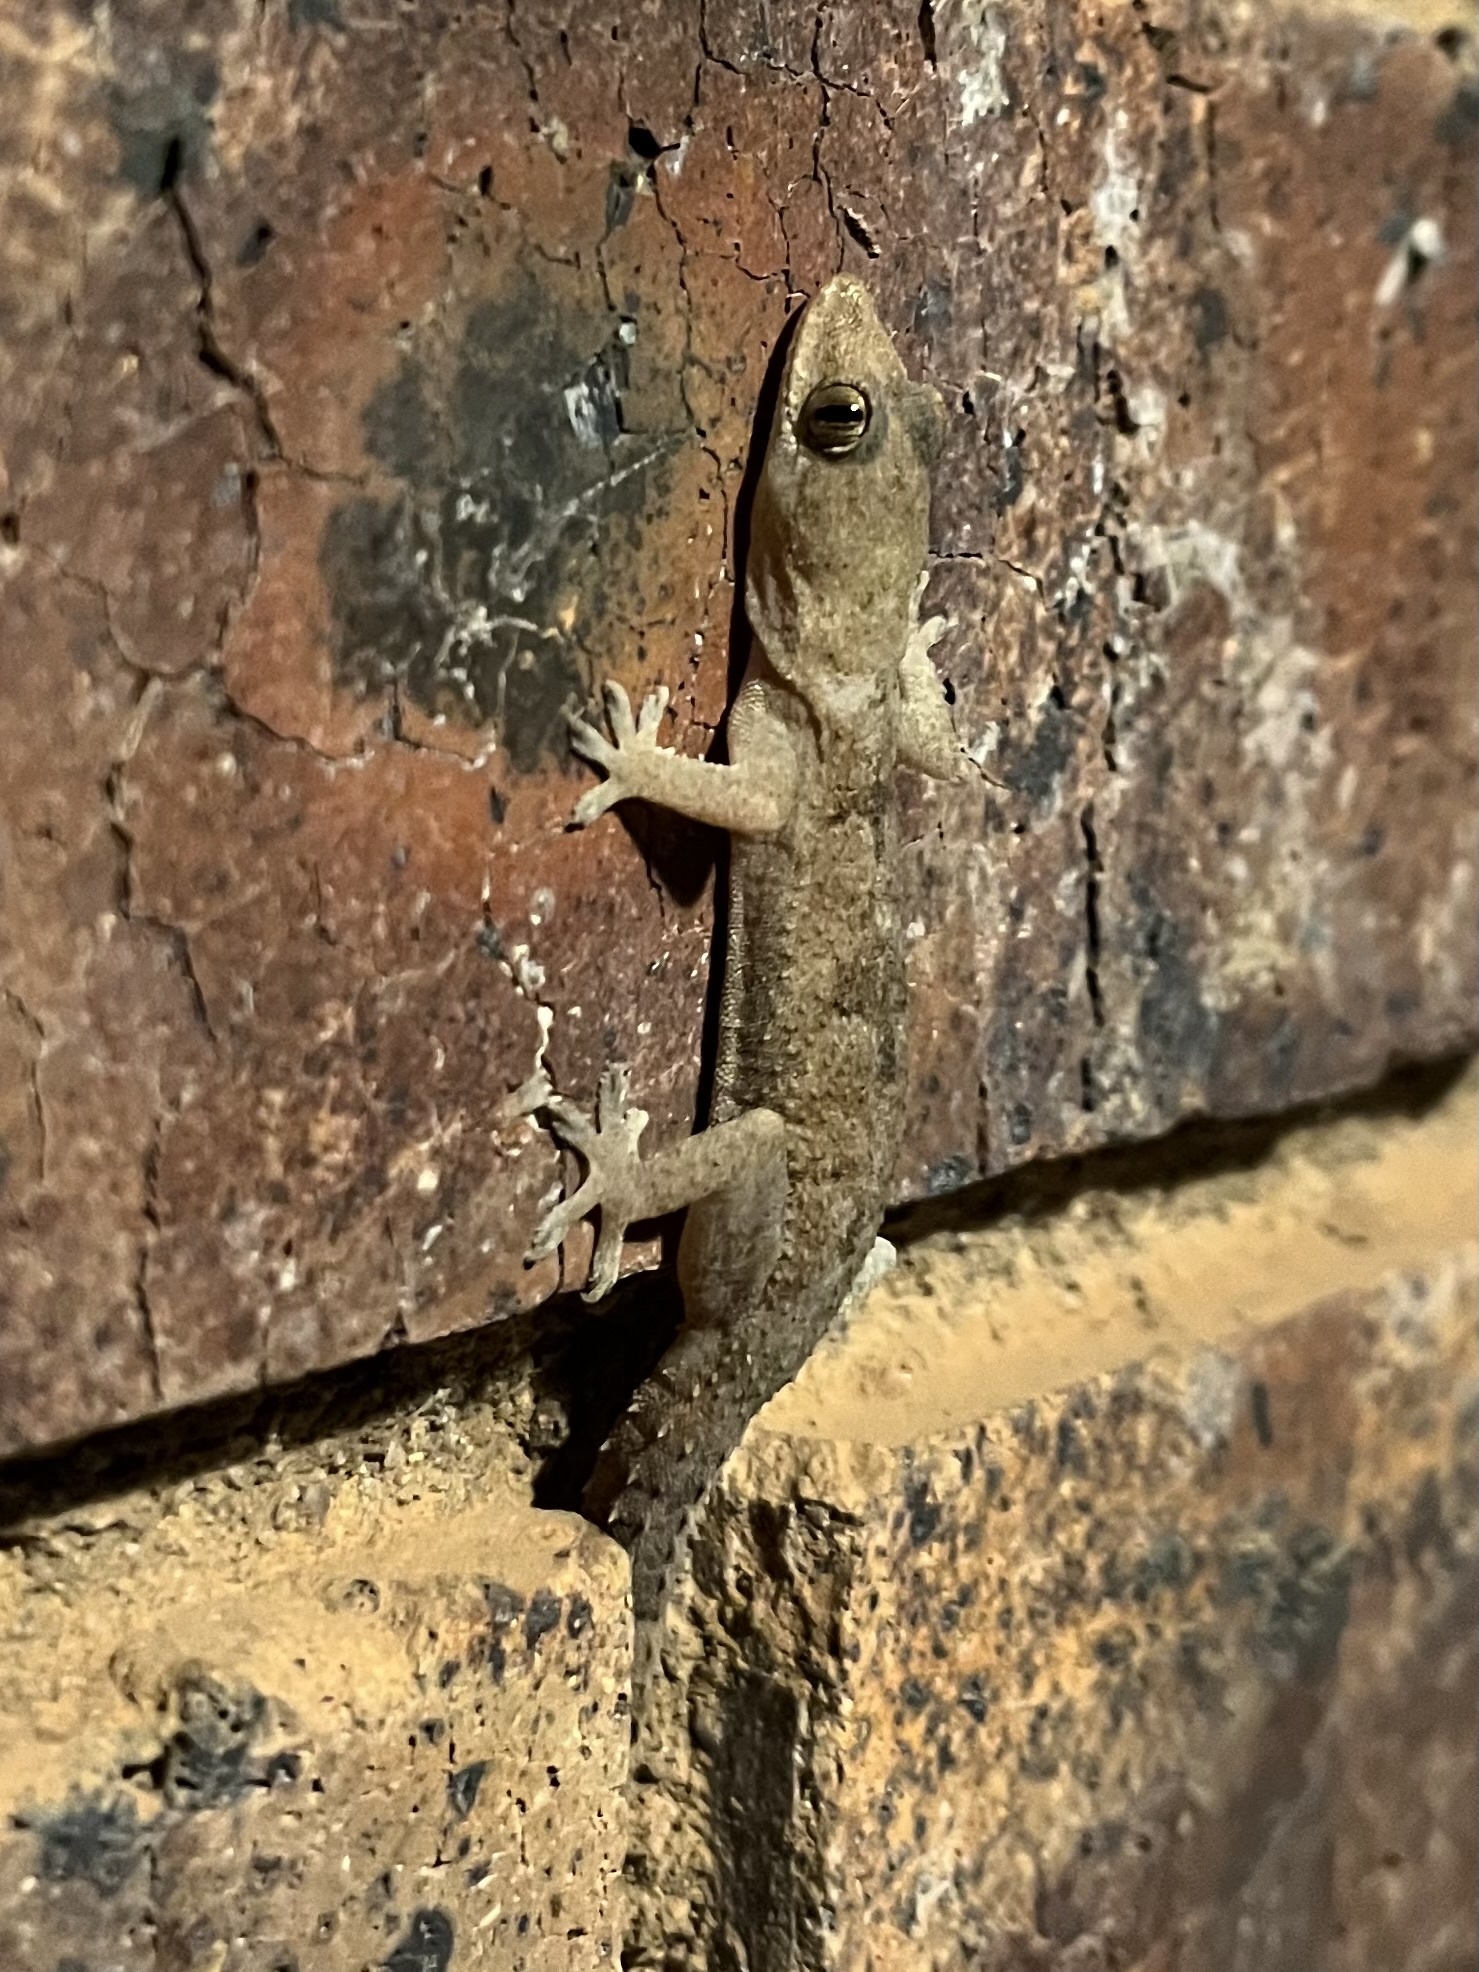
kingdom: Animalia
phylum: Chordata
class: Squamata
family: Gekkonidae
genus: Hemidactylus
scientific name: Hemidactylus mabouia
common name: House gecko
